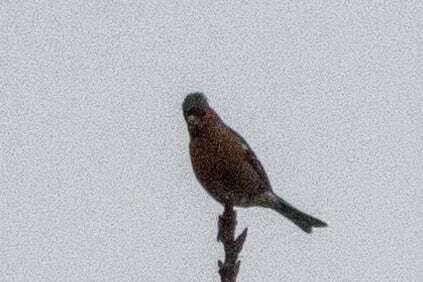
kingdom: Animalia
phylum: Chordata
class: Aves
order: Passeriformes
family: Fringillidae
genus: Fringilla
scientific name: Fringilla coelebs
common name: Common chaffinch
